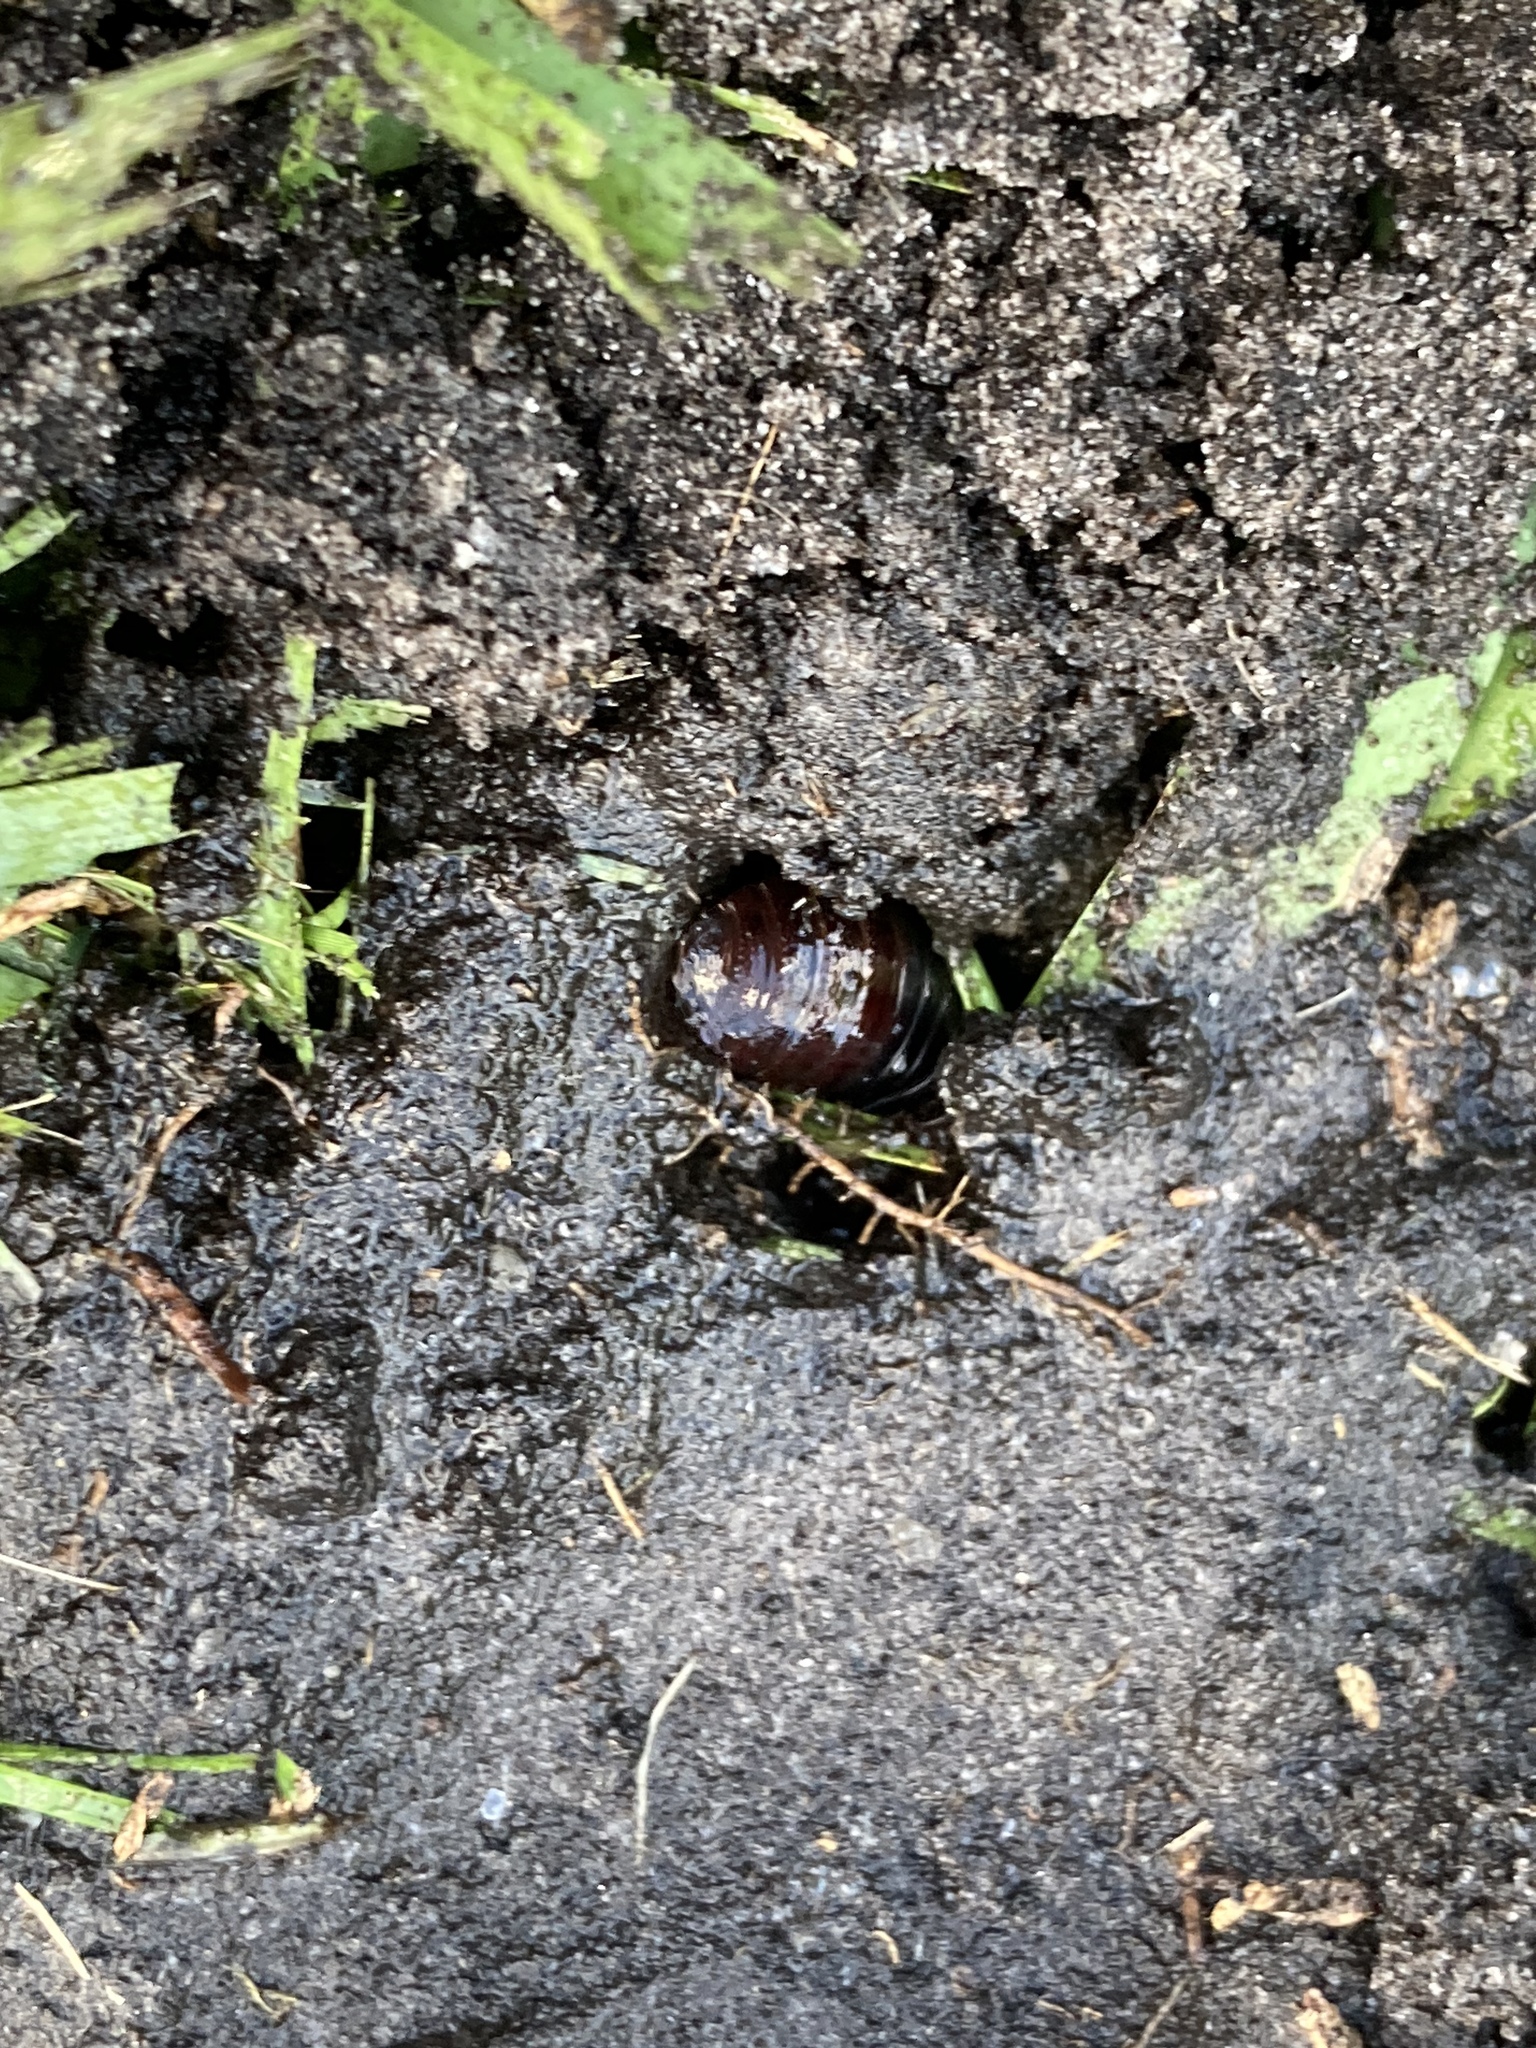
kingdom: Animalia
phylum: Arthropoda
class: Insecta
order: Blattodea
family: Blaberidae
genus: Pycnoscelus
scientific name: Pycnoscelus surinamensis
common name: Surinam cockroach
